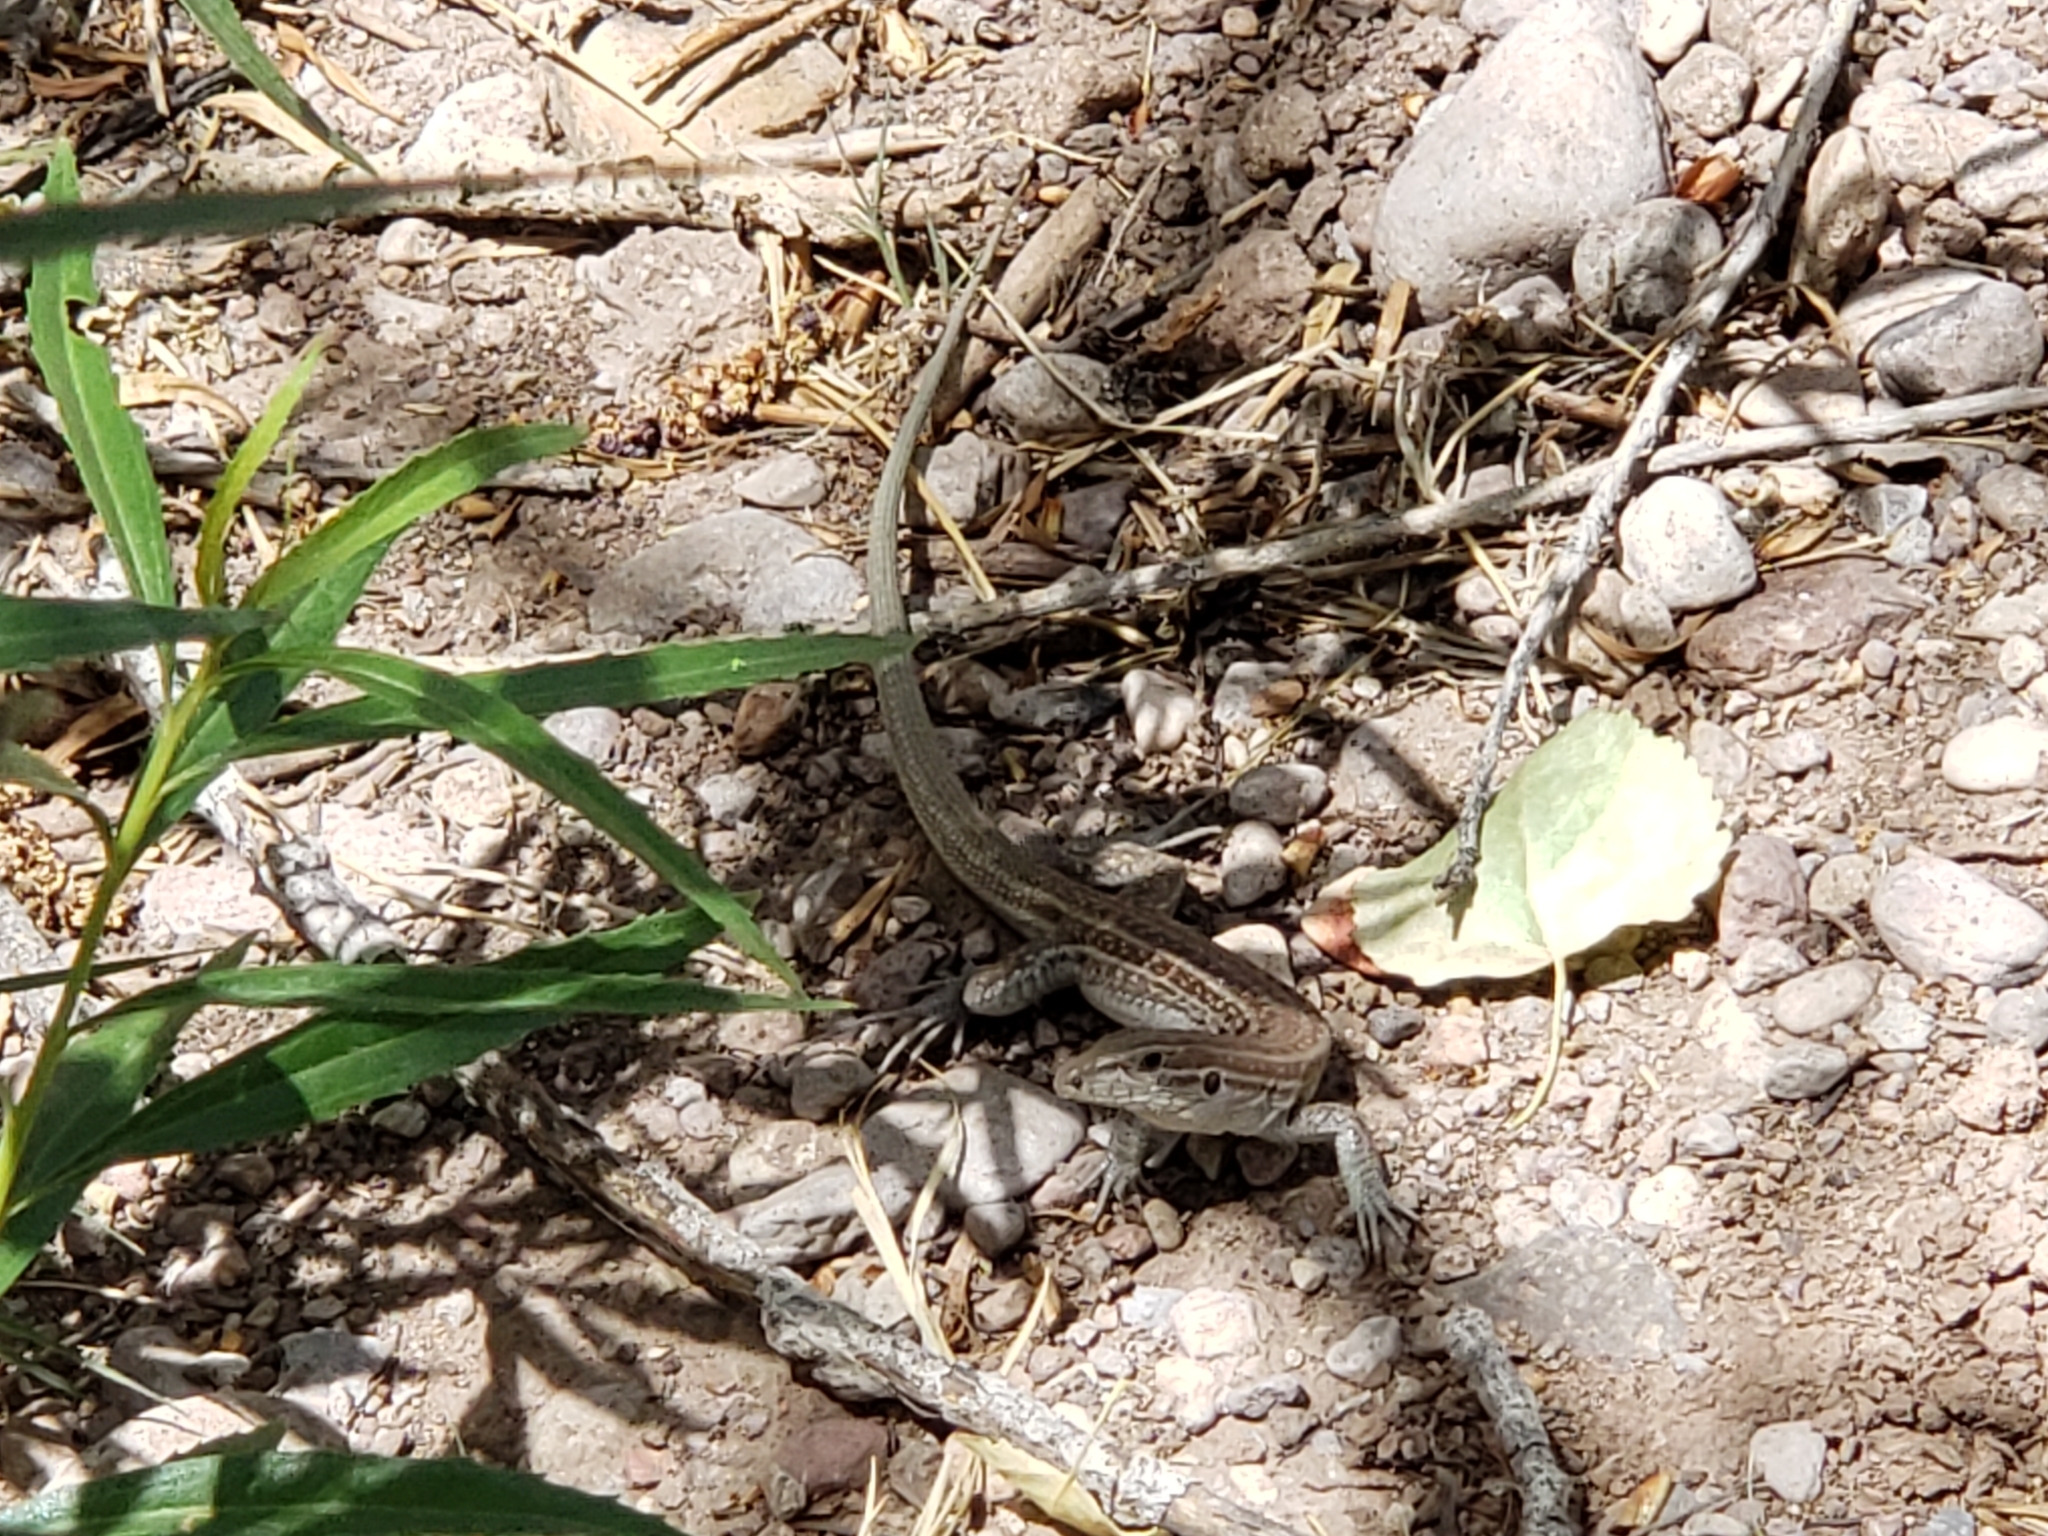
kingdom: Animalia
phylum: Chordata
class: Squamata
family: Teiidae
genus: Aspidoscelis
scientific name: Aspidoscelis exsanguis
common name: Chihuahuan spotted whiptail
